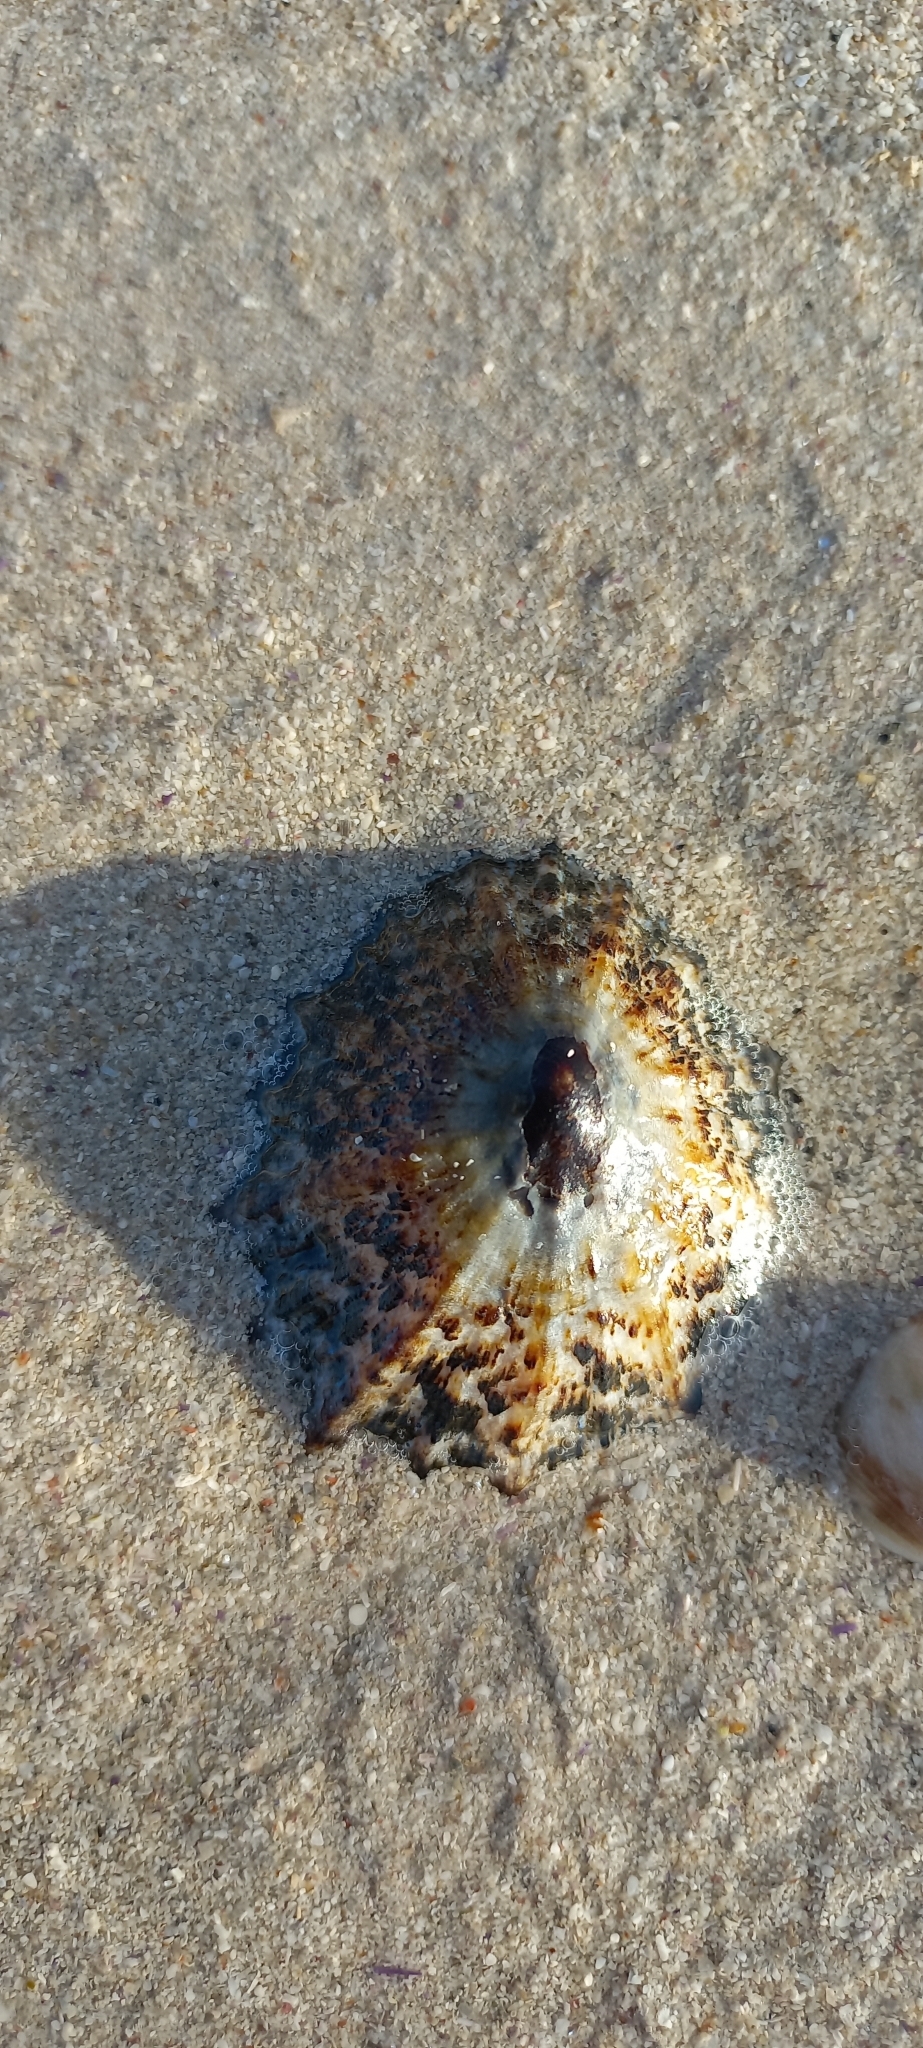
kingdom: Animalia
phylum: Mollusca
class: Gastropoda
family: Patellidae
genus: Cymbula
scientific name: Cymbula granatina
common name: Granite limpet
